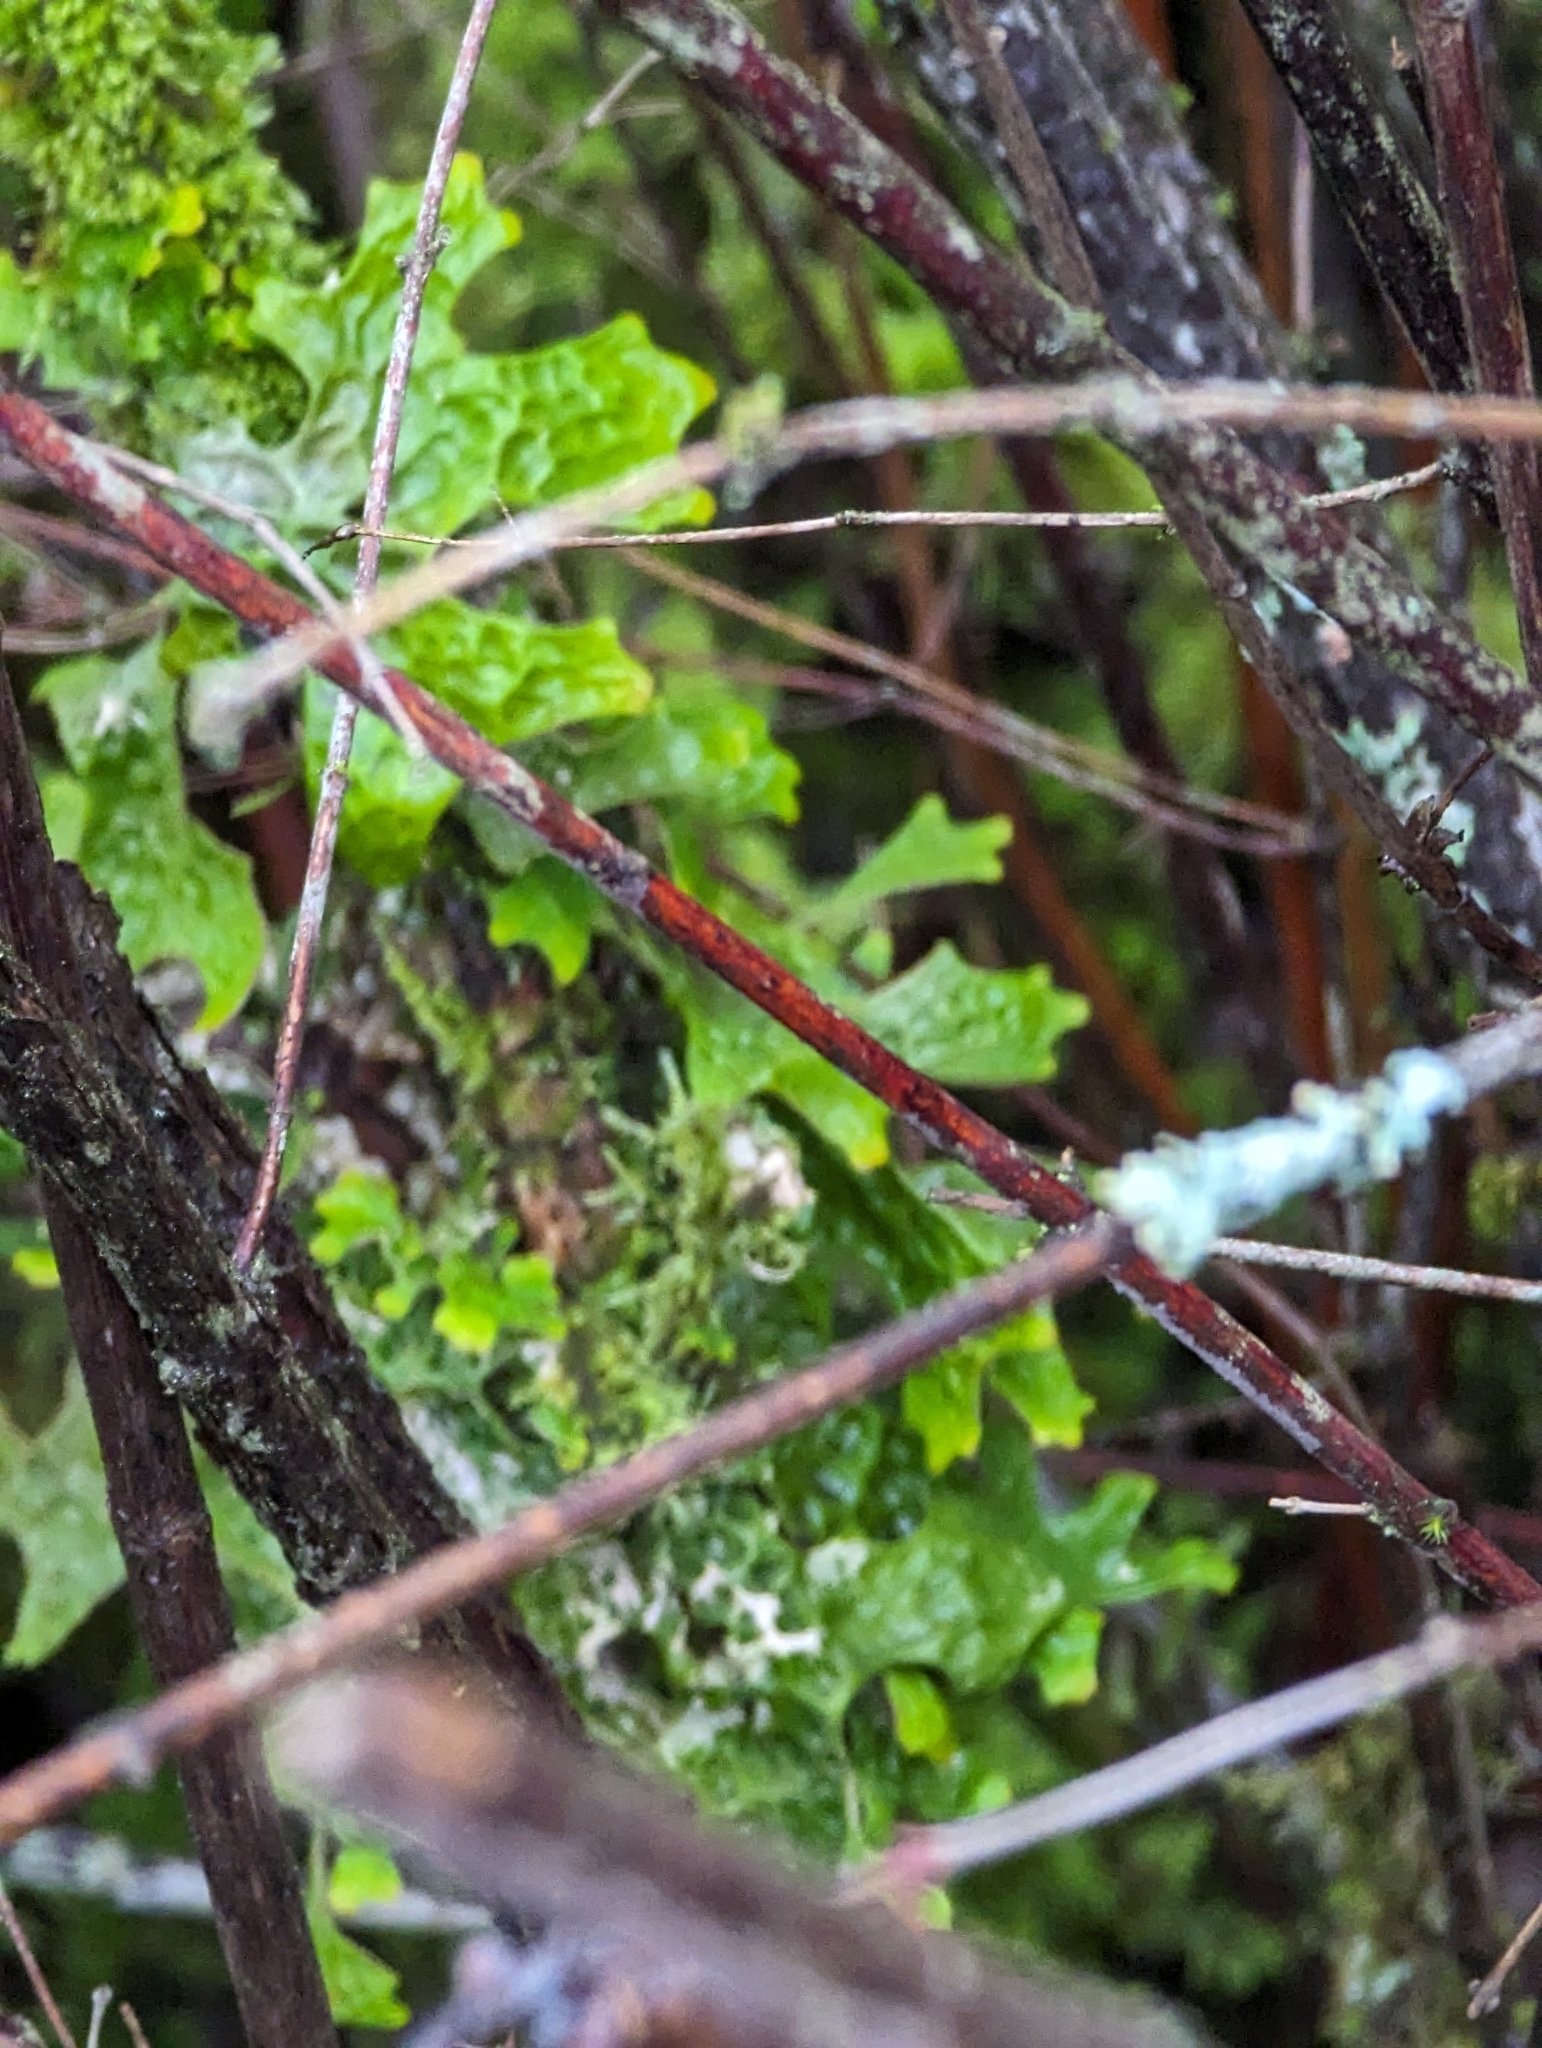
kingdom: Fungi
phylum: Ascomycota
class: Lecanoromycetes
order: Peltigerales
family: Lobariaceae
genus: Lobaria
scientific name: Lobaria pulmonaria
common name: Lungwort
